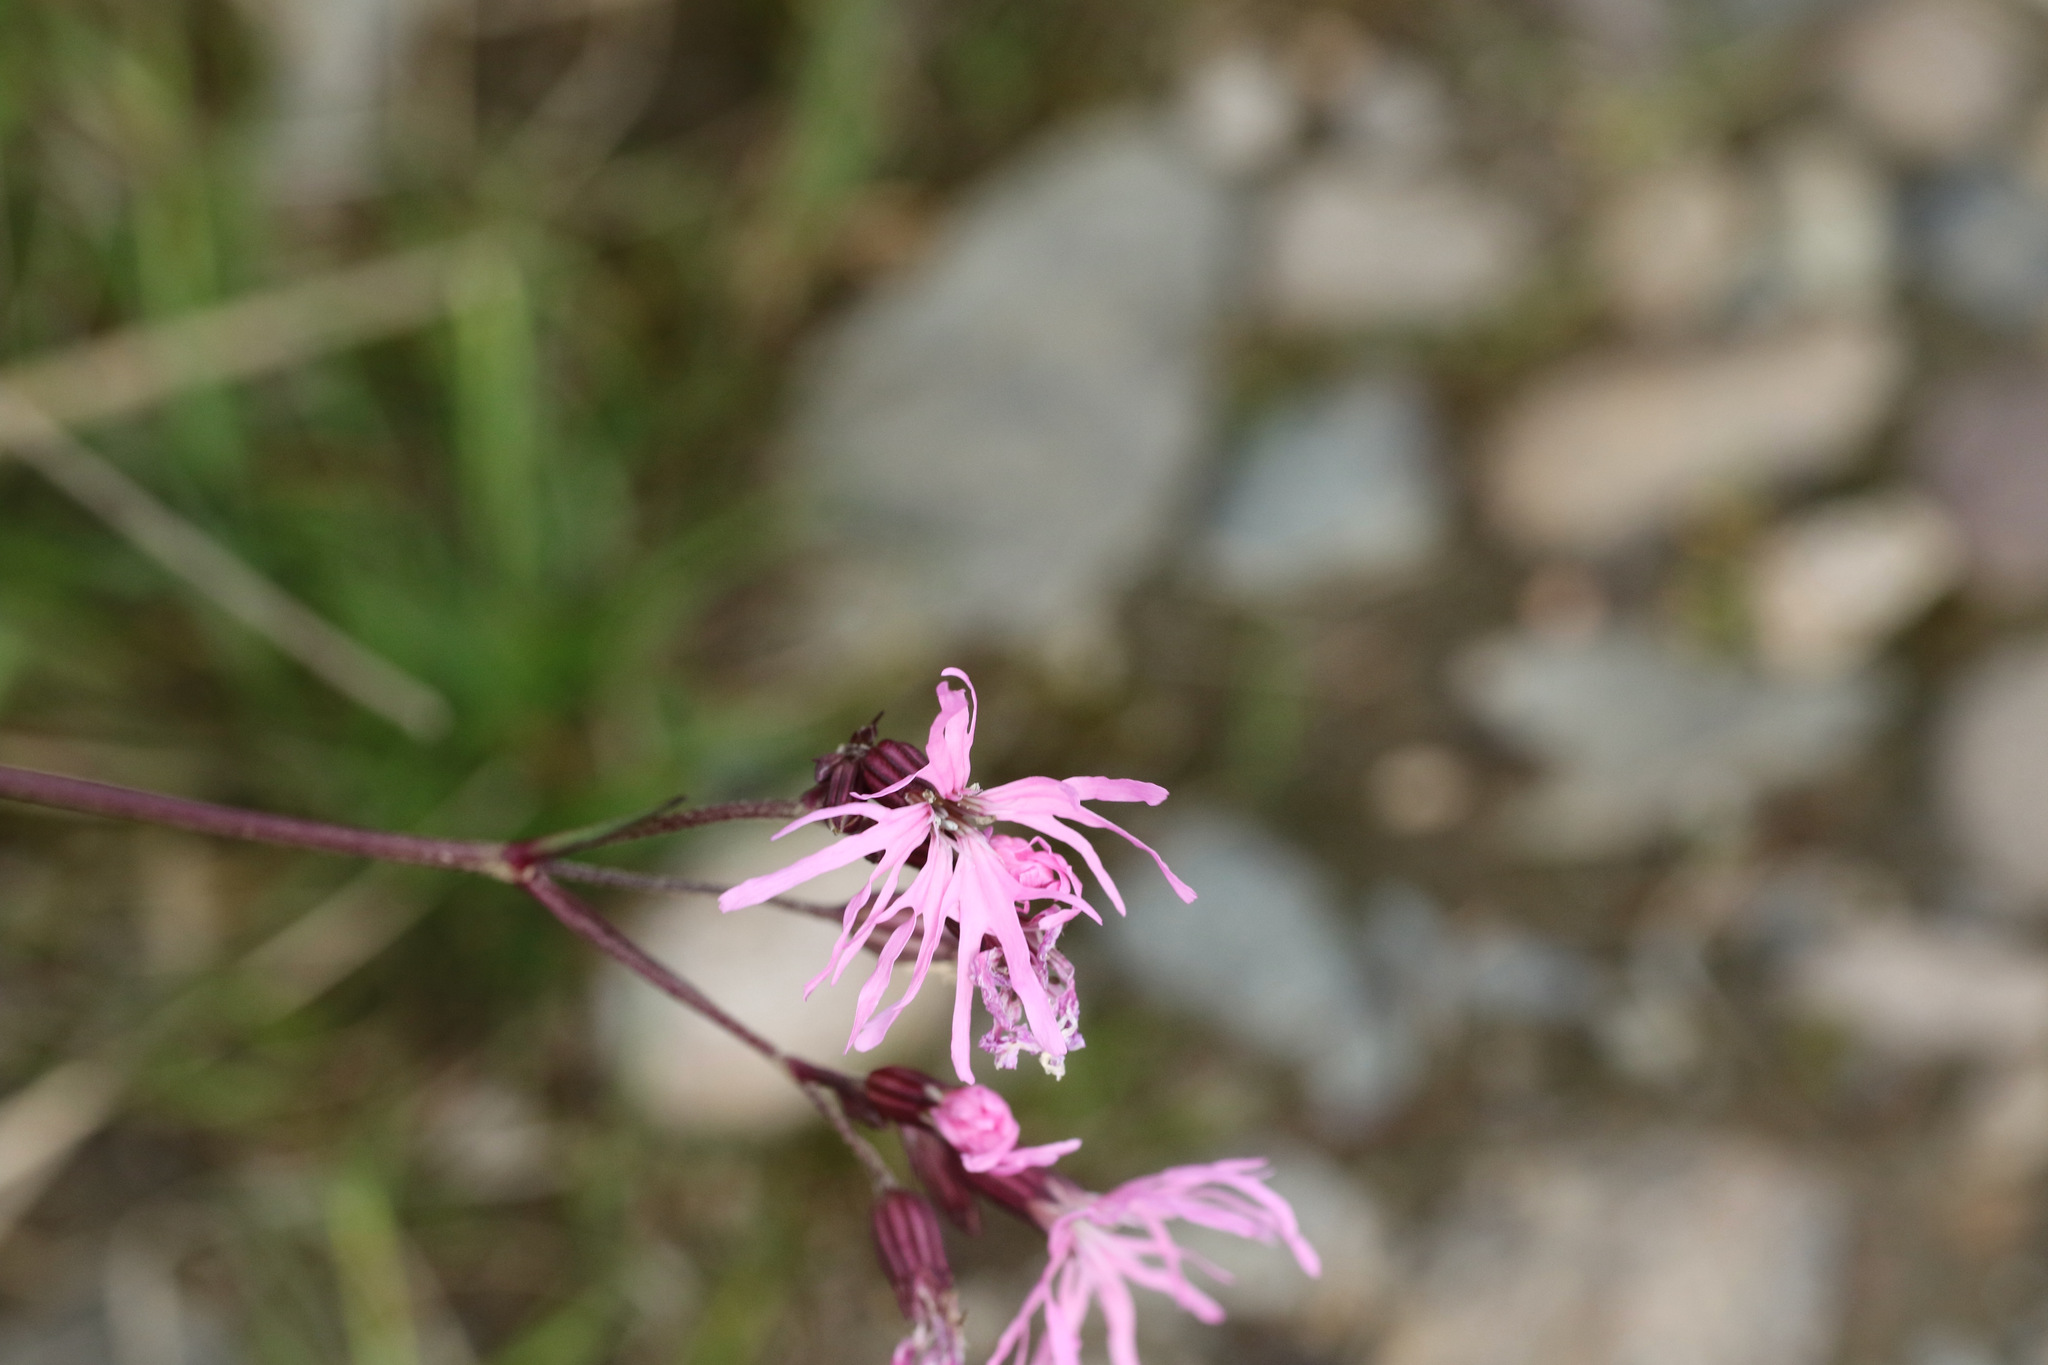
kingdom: Plantae
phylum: Tracheophyta
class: Magnoliopsida
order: Caryophyllales
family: Caryophyllaceae
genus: Silene
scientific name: Silene flos-cuculi
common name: Ragged-robin
